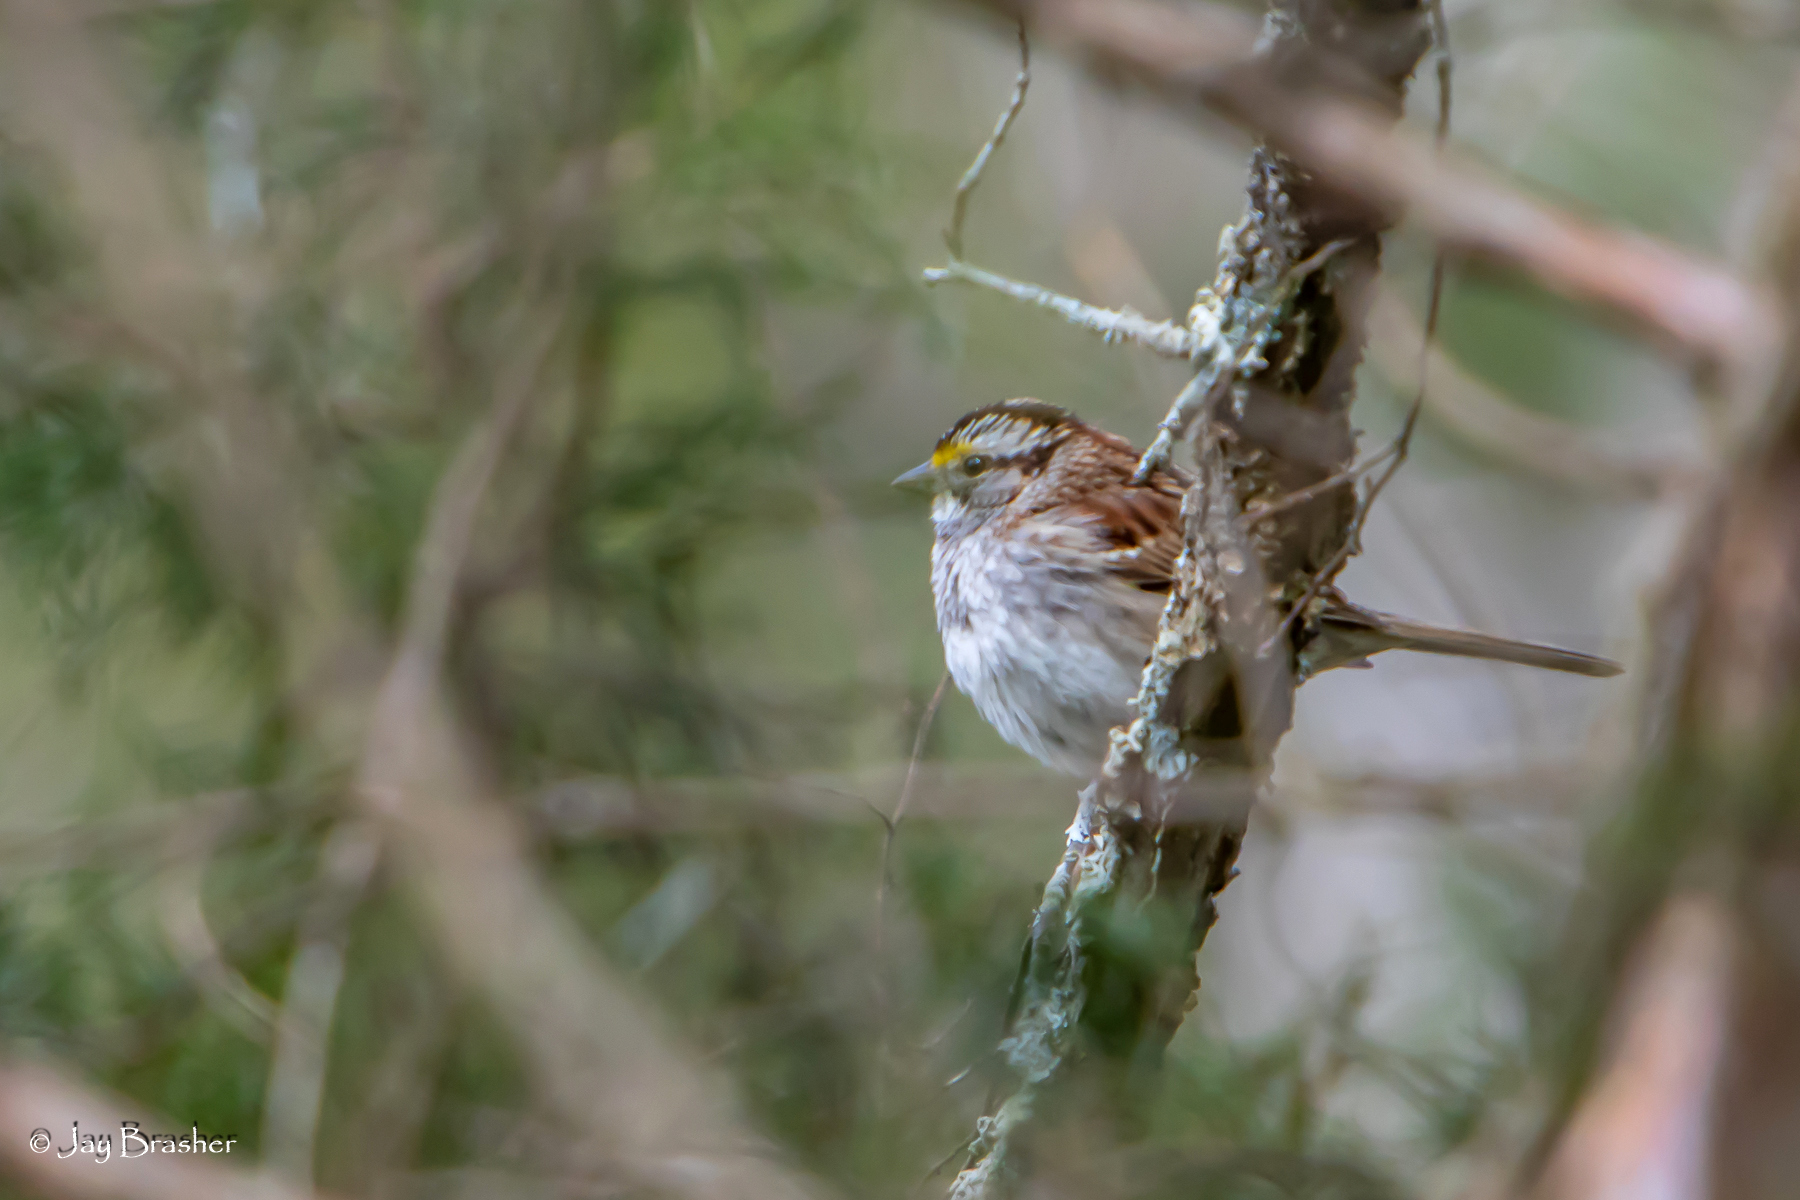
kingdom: Animalia
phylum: Chordata
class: Aves
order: Passeriformes
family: Passerellidae
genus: Zonotrichia
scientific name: Zonotrichia albicollis
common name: White-throated sparrow
